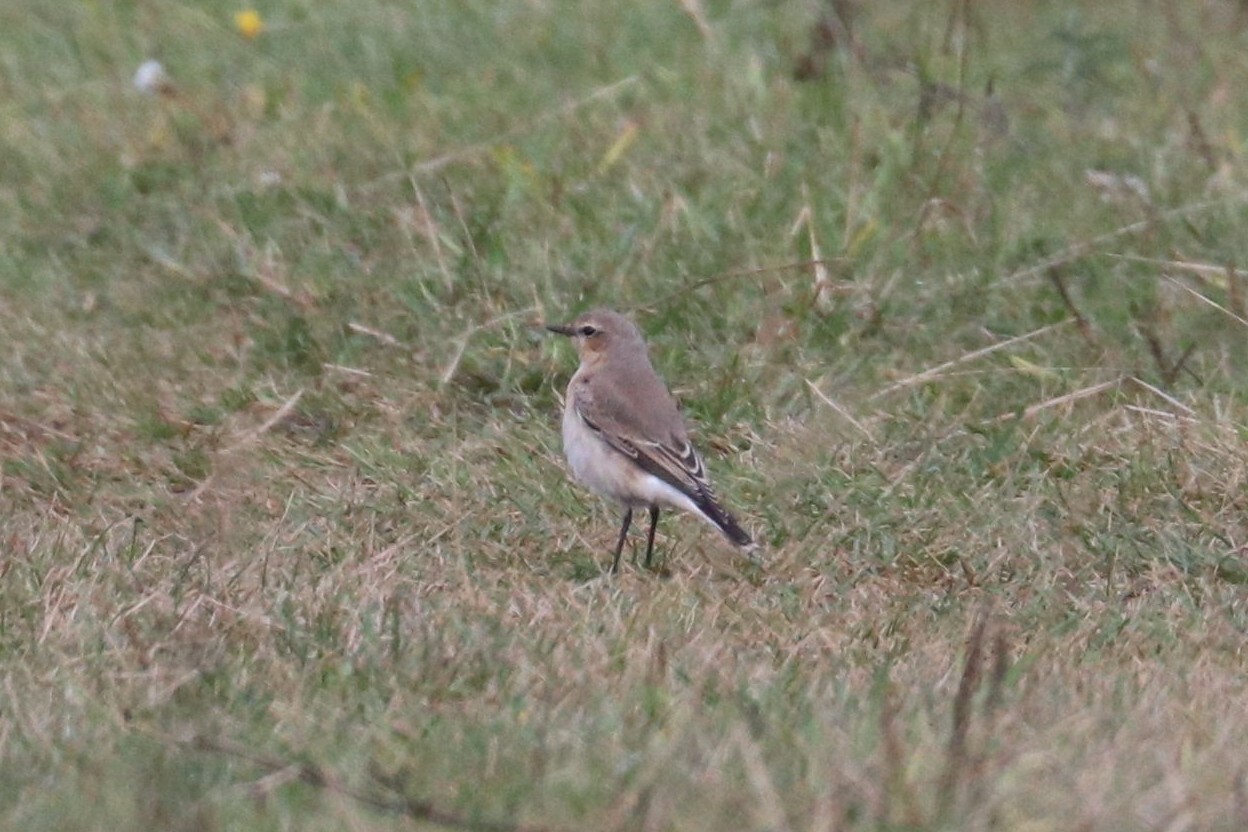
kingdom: Animalia
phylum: Chordata
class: Aves
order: Passeriformes
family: Muscicapidae
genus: Oenanthe
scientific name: Oenanthe oenanthe
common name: Northern wheatear
